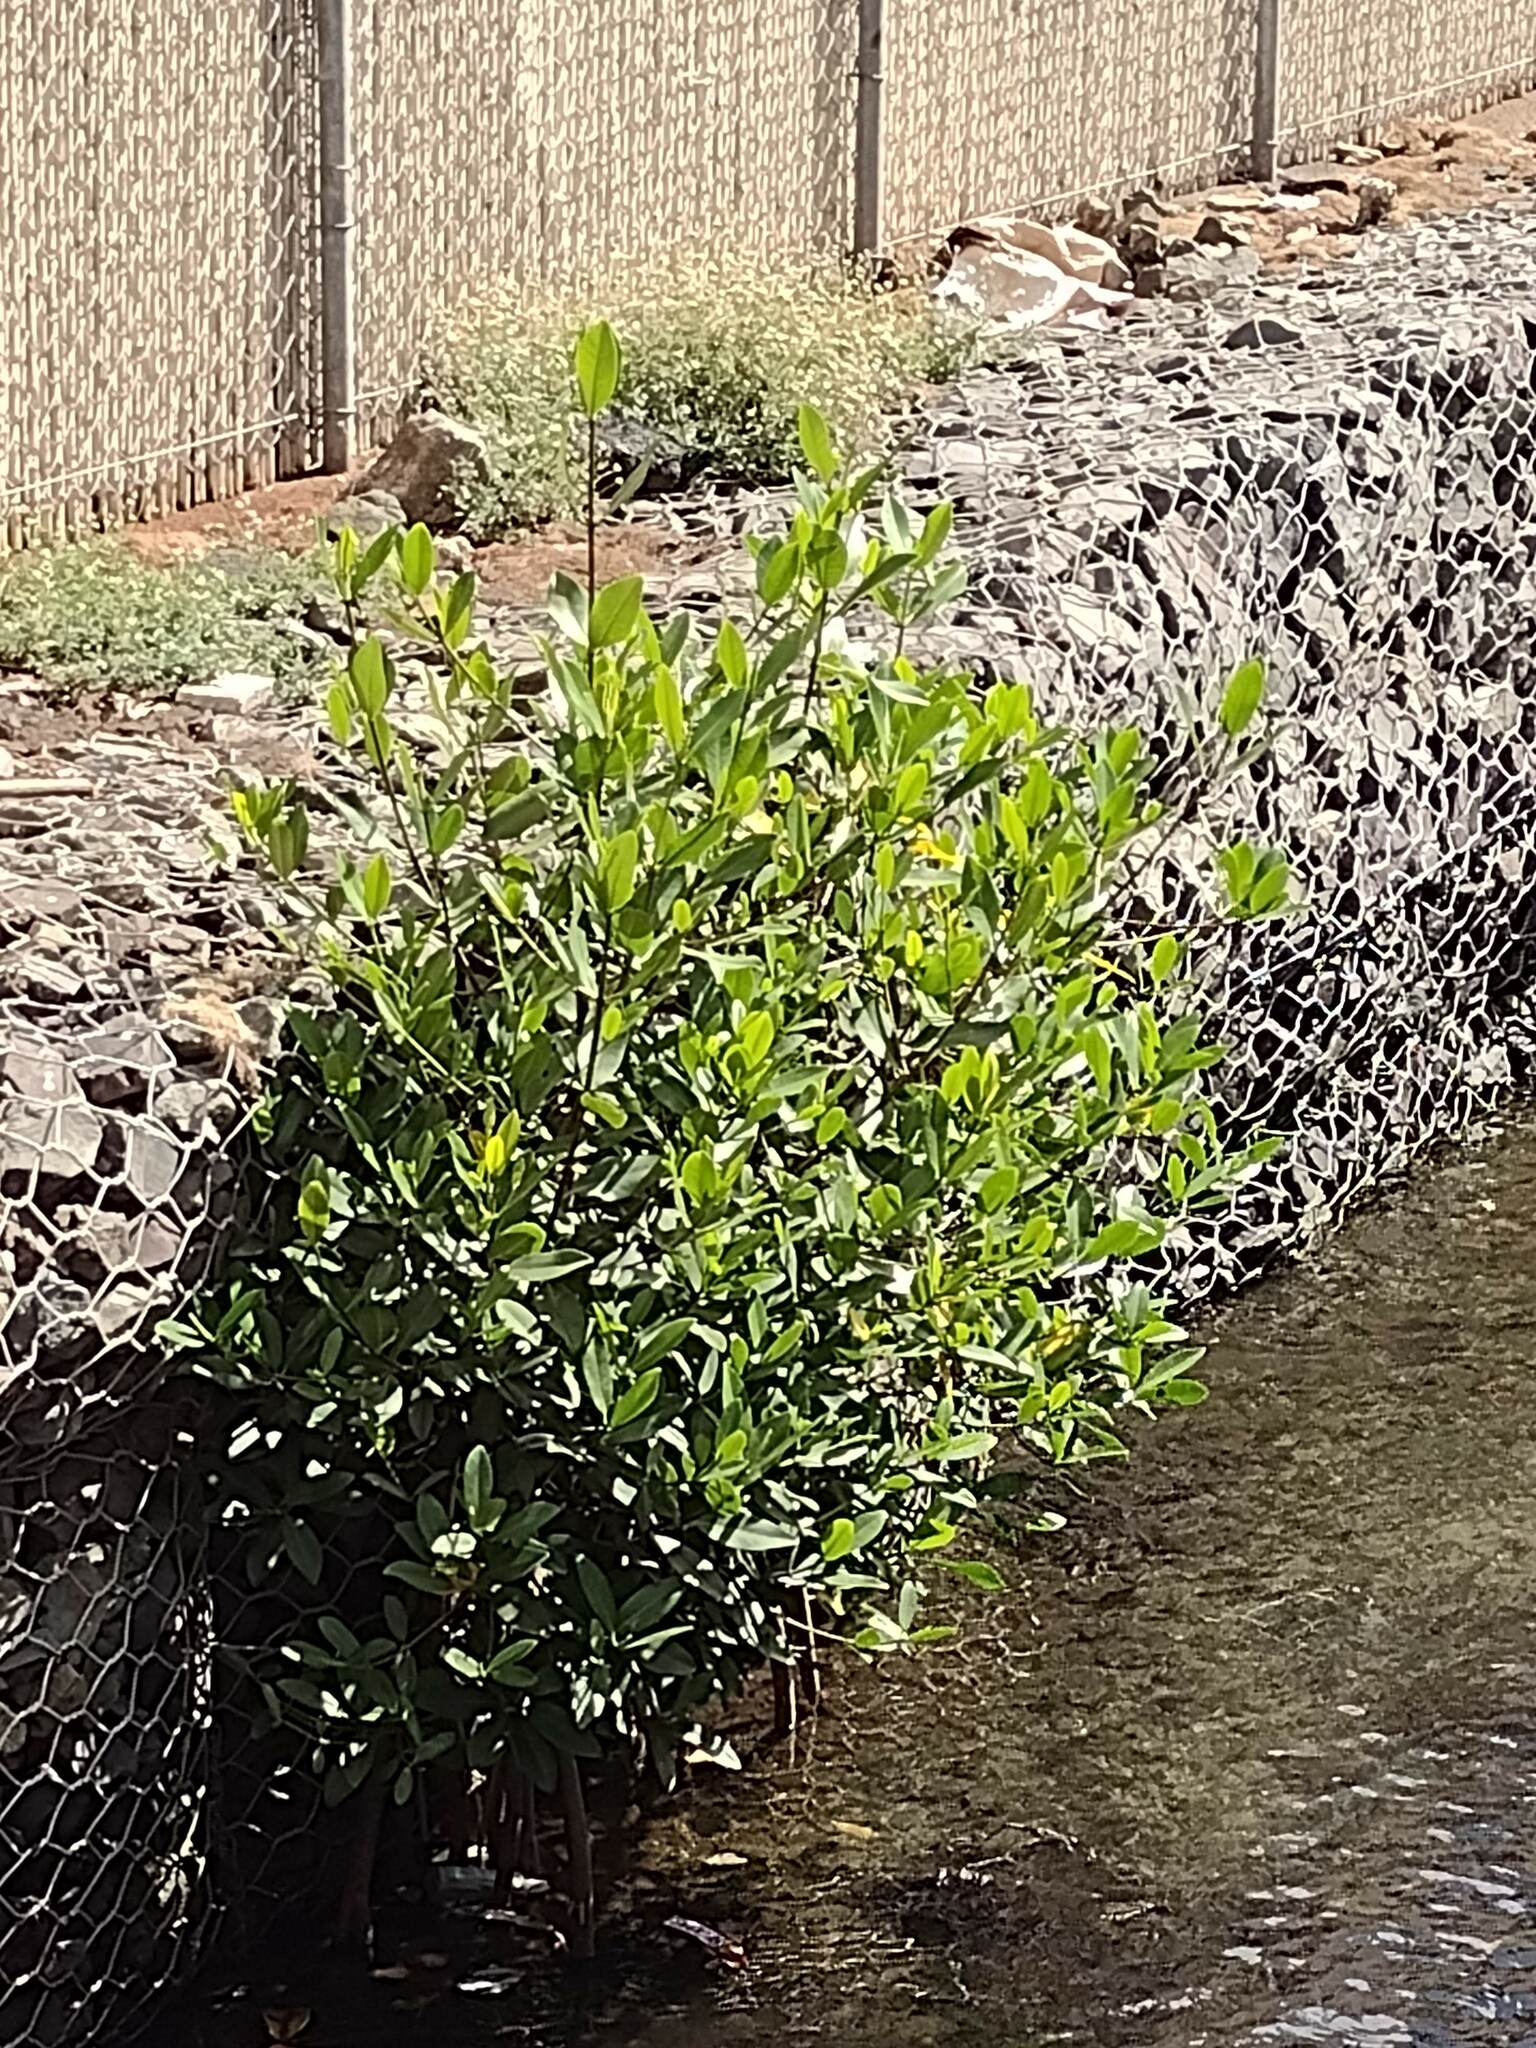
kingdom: Plantae
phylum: Tracheophyta
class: Magnoliopsida
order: Malpighiales
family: Rhizophoraceae
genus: Rhizophora
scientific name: Rhizophora mangle
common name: Red mangrove
